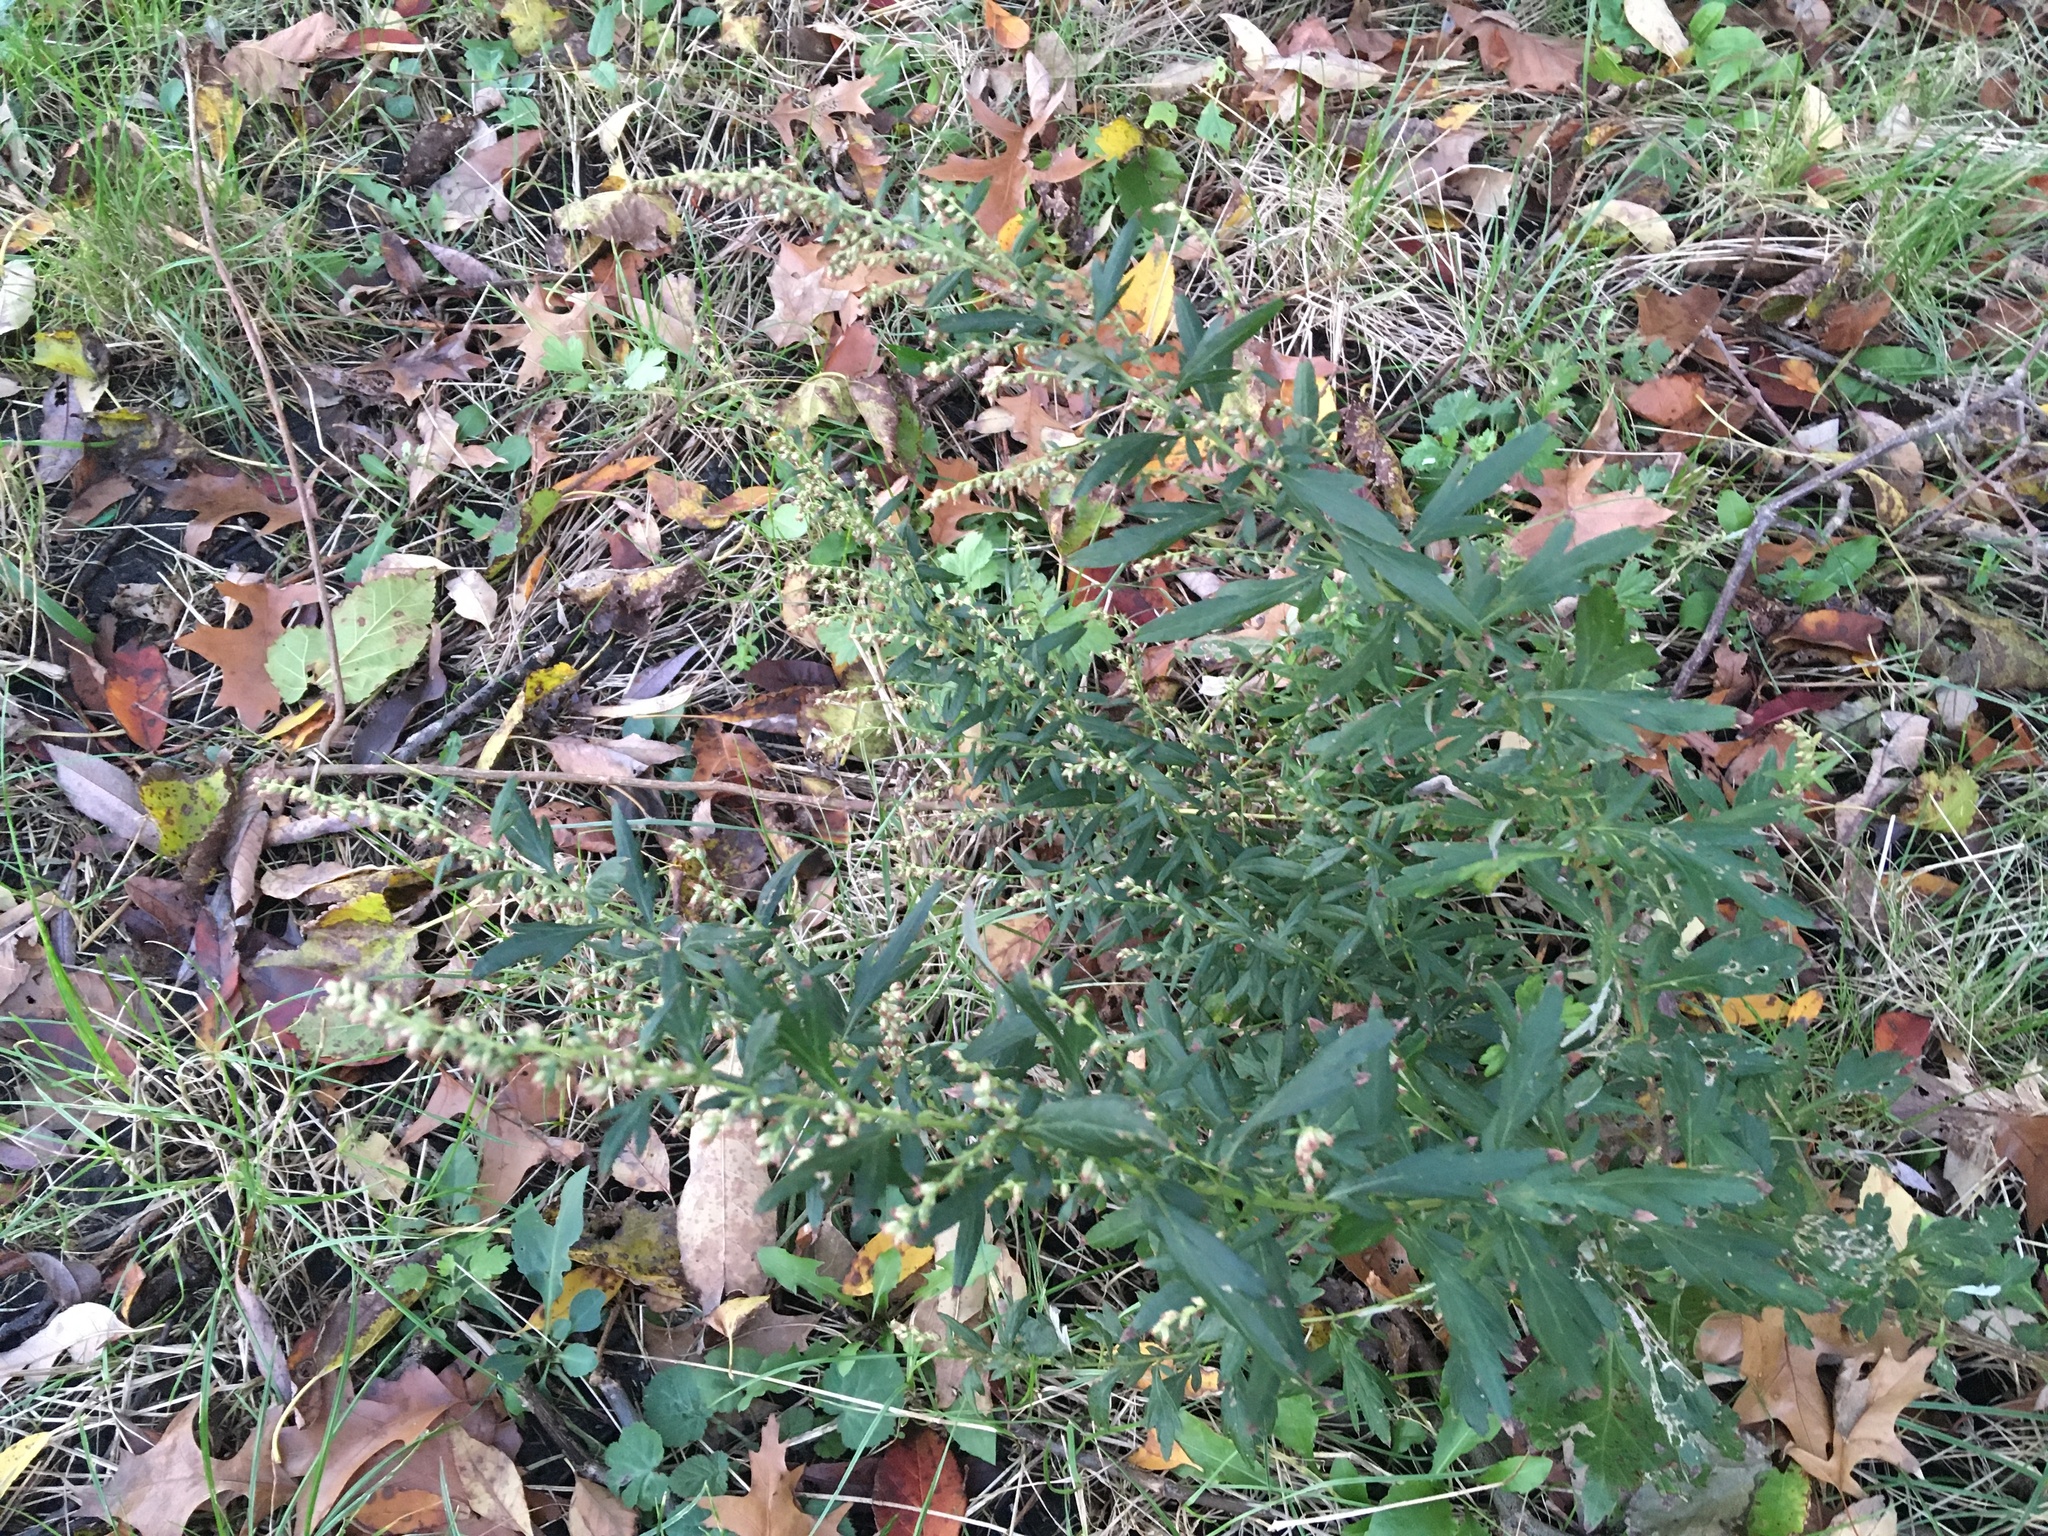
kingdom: Plantae
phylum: Tracheophyta
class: Magnoliopsida
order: Asterales
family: Asteraceae
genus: Artemisia
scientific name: Artemisia vulgaris
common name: Mugwort
